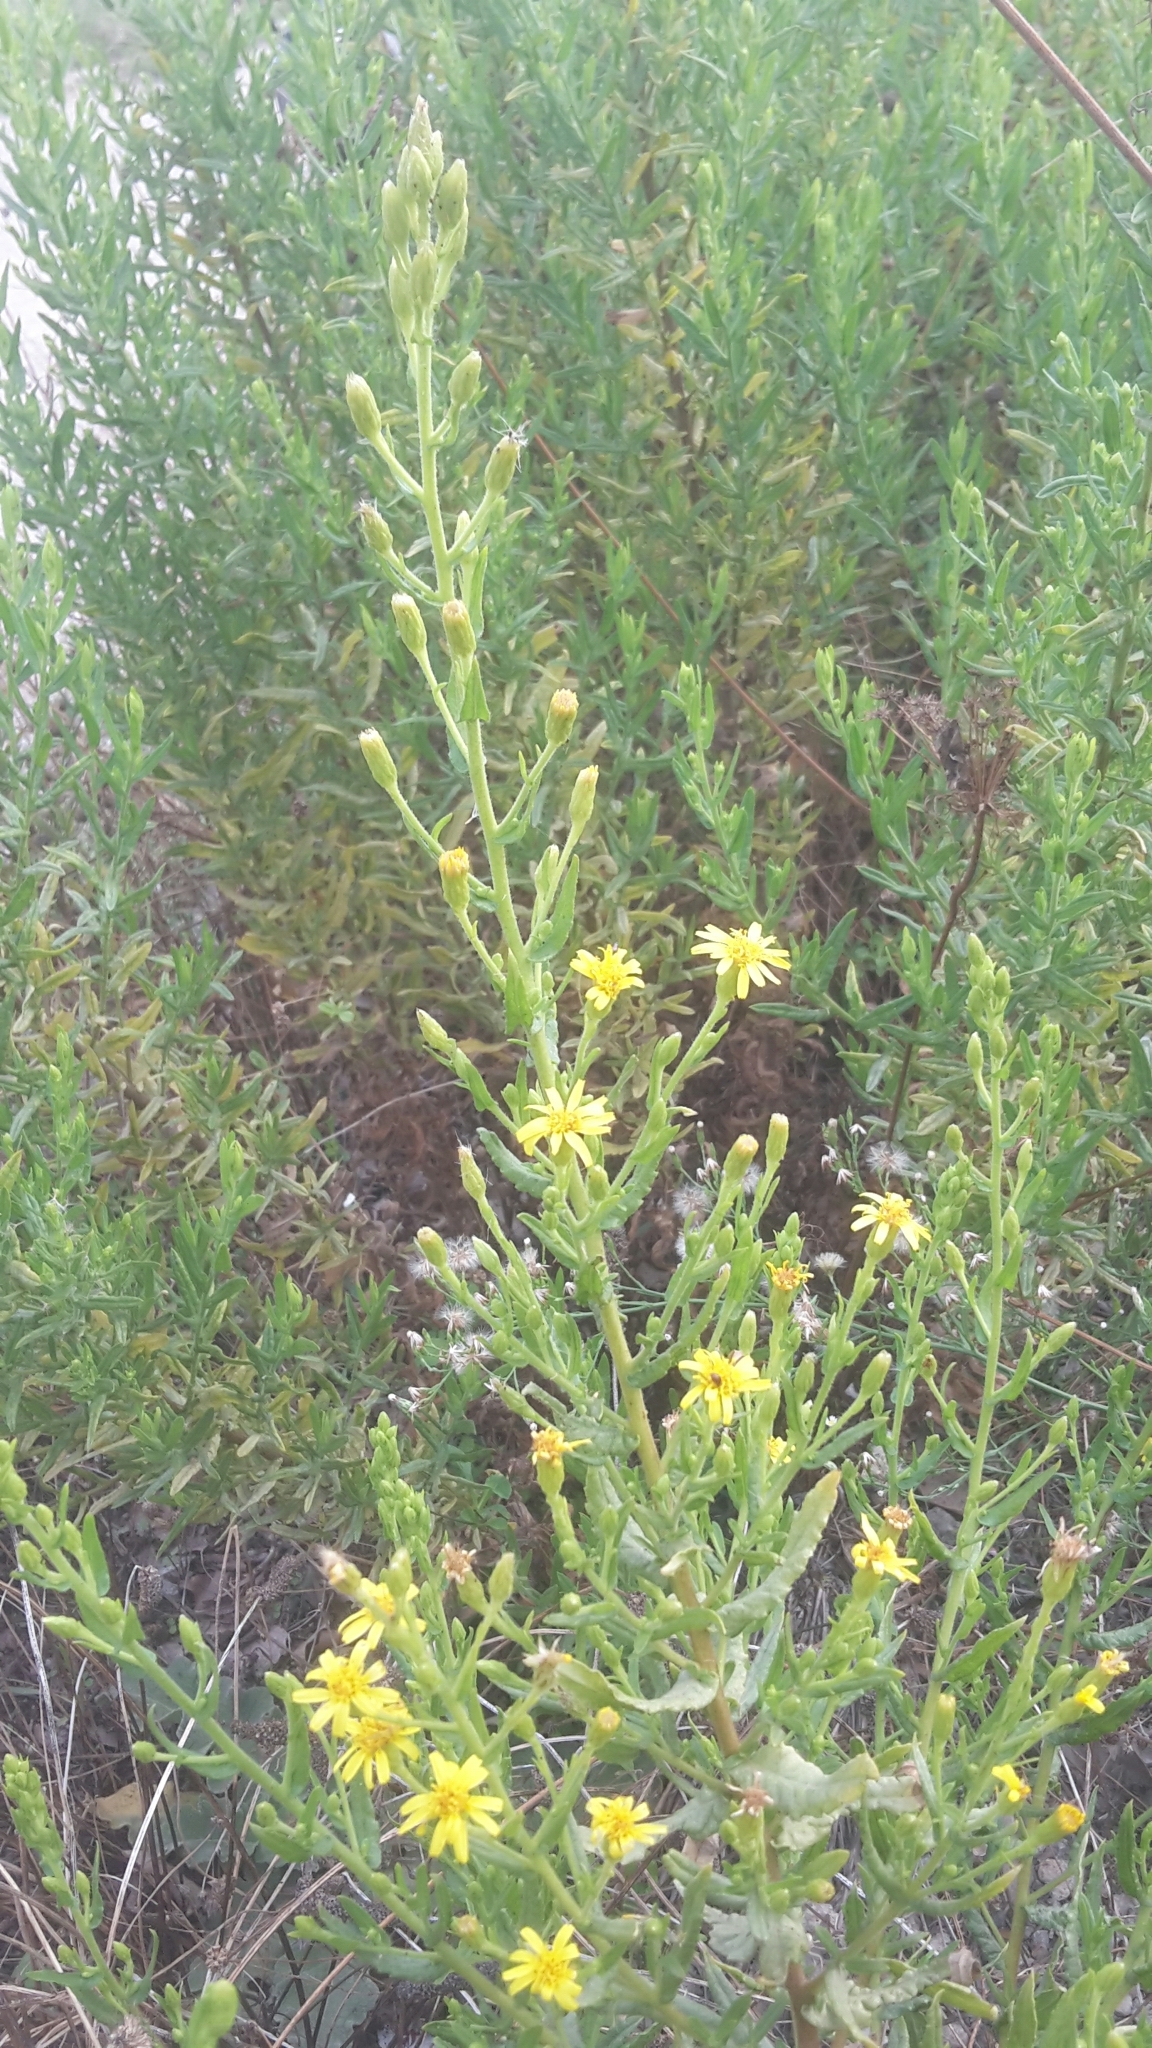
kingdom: Plantae
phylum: Tracheophyta
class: Magnoliopsida
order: Asterales
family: Asteraceae
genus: Dittrichia
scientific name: Dittrichia viscosa
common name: Woody fleabane
